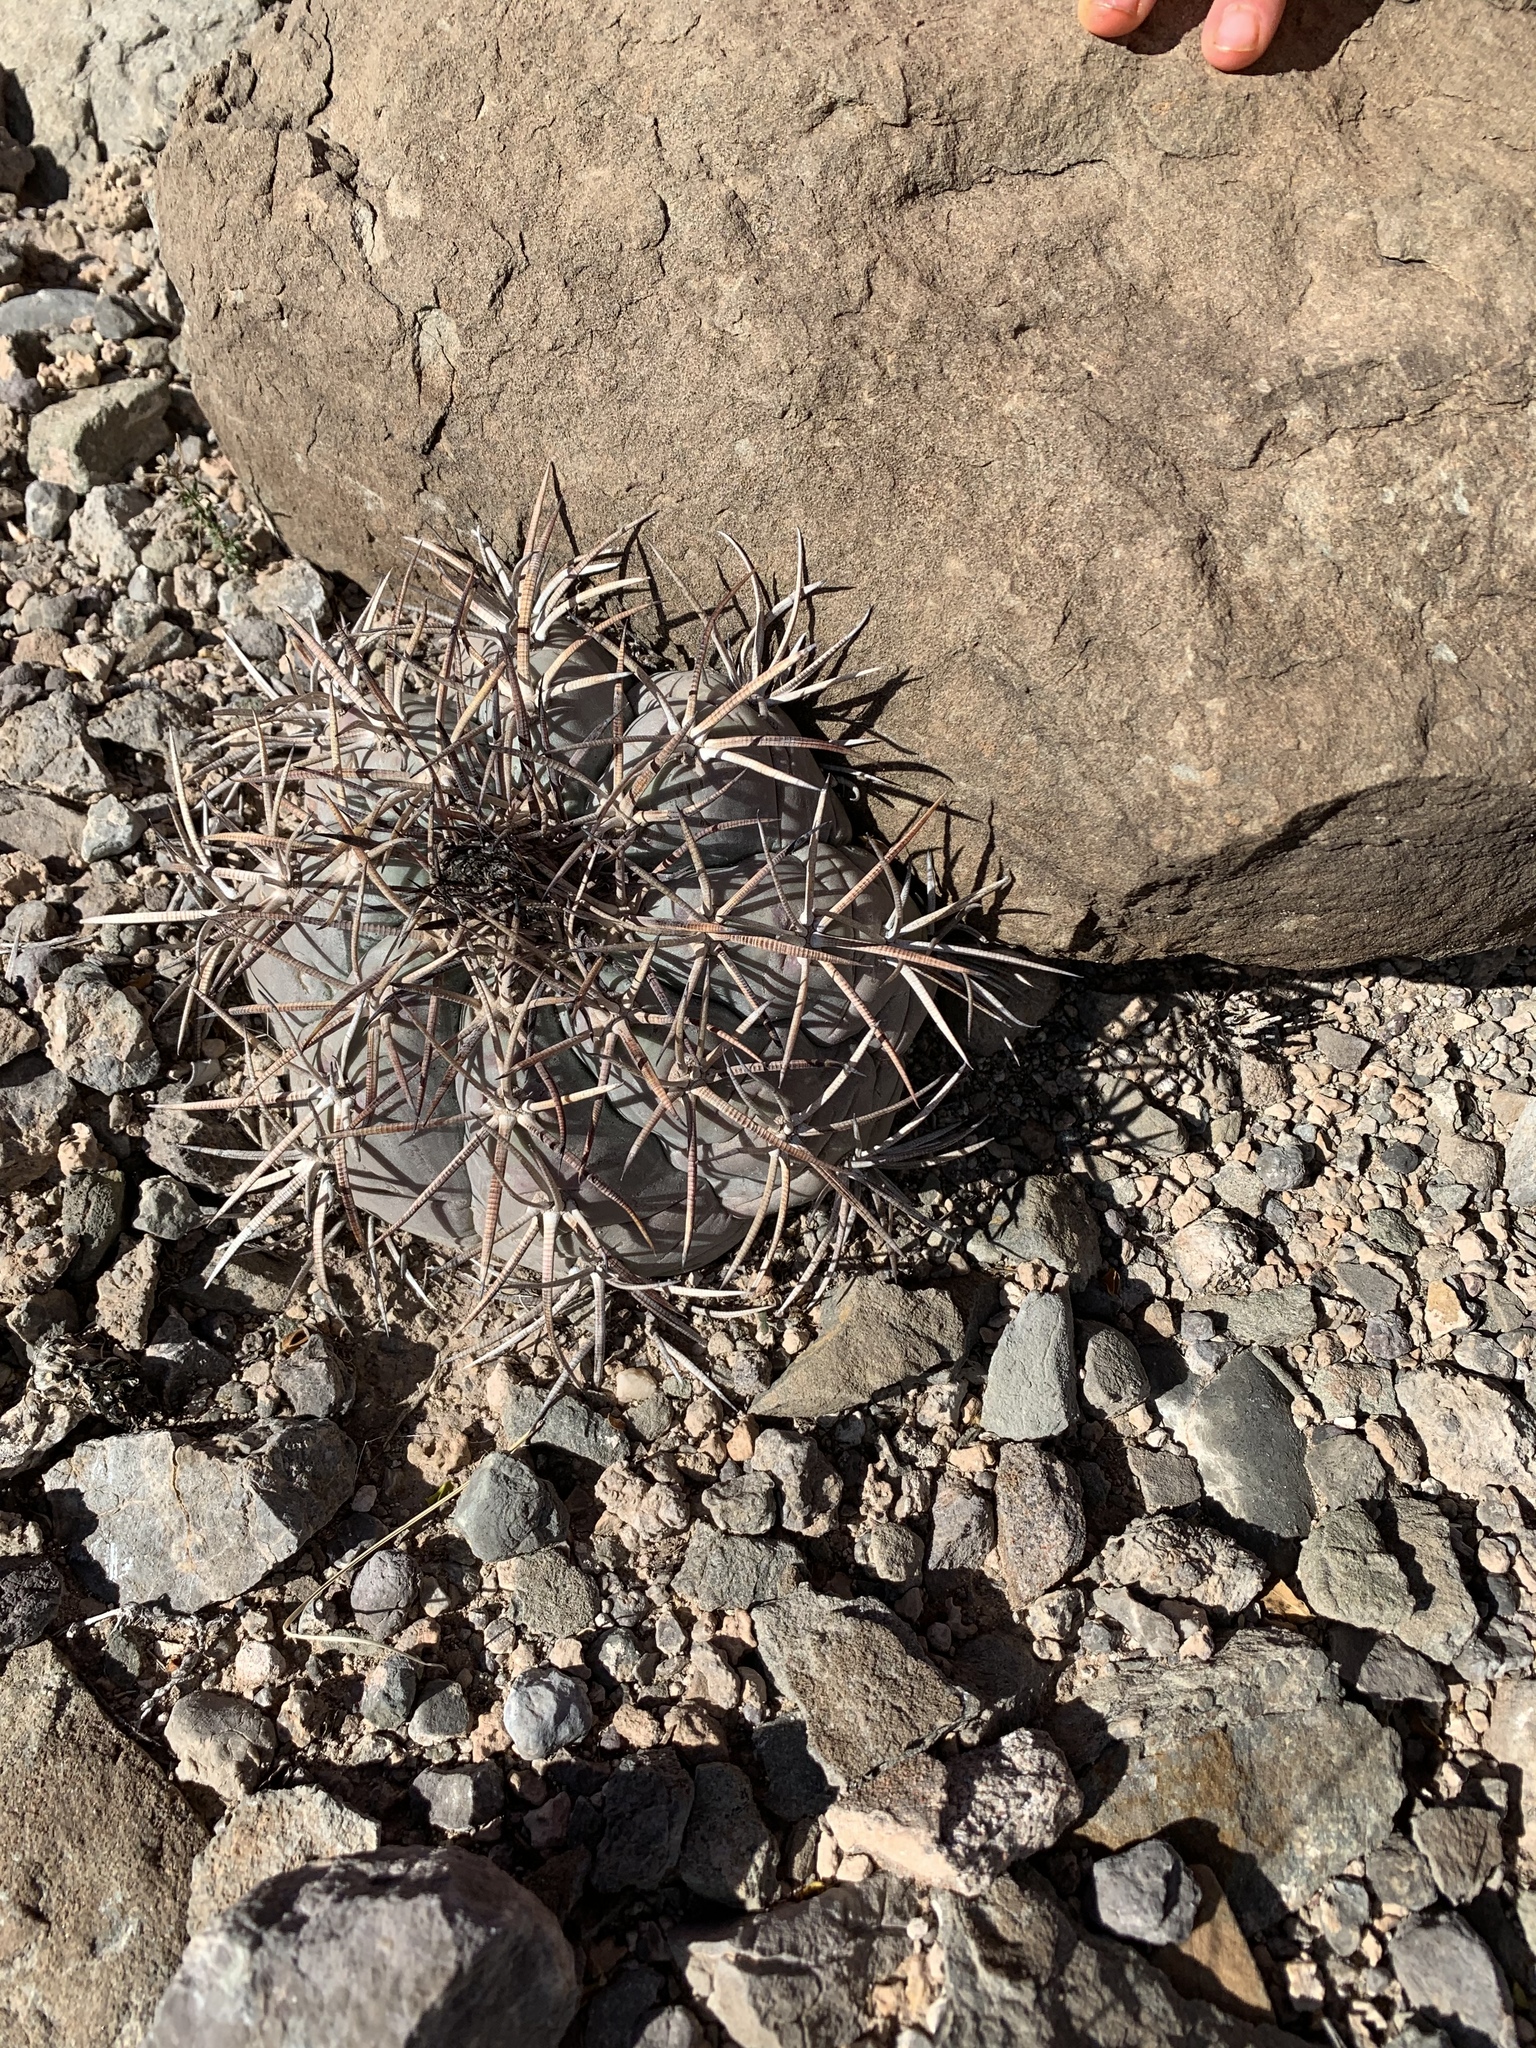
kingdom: Plantae
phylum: Tracheophyta
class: Magnoliopsida
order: Caryophyllales
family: Cactaceae
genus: Echinocactus
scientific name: Echinocactus horizonthalonius
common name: Devilshead
